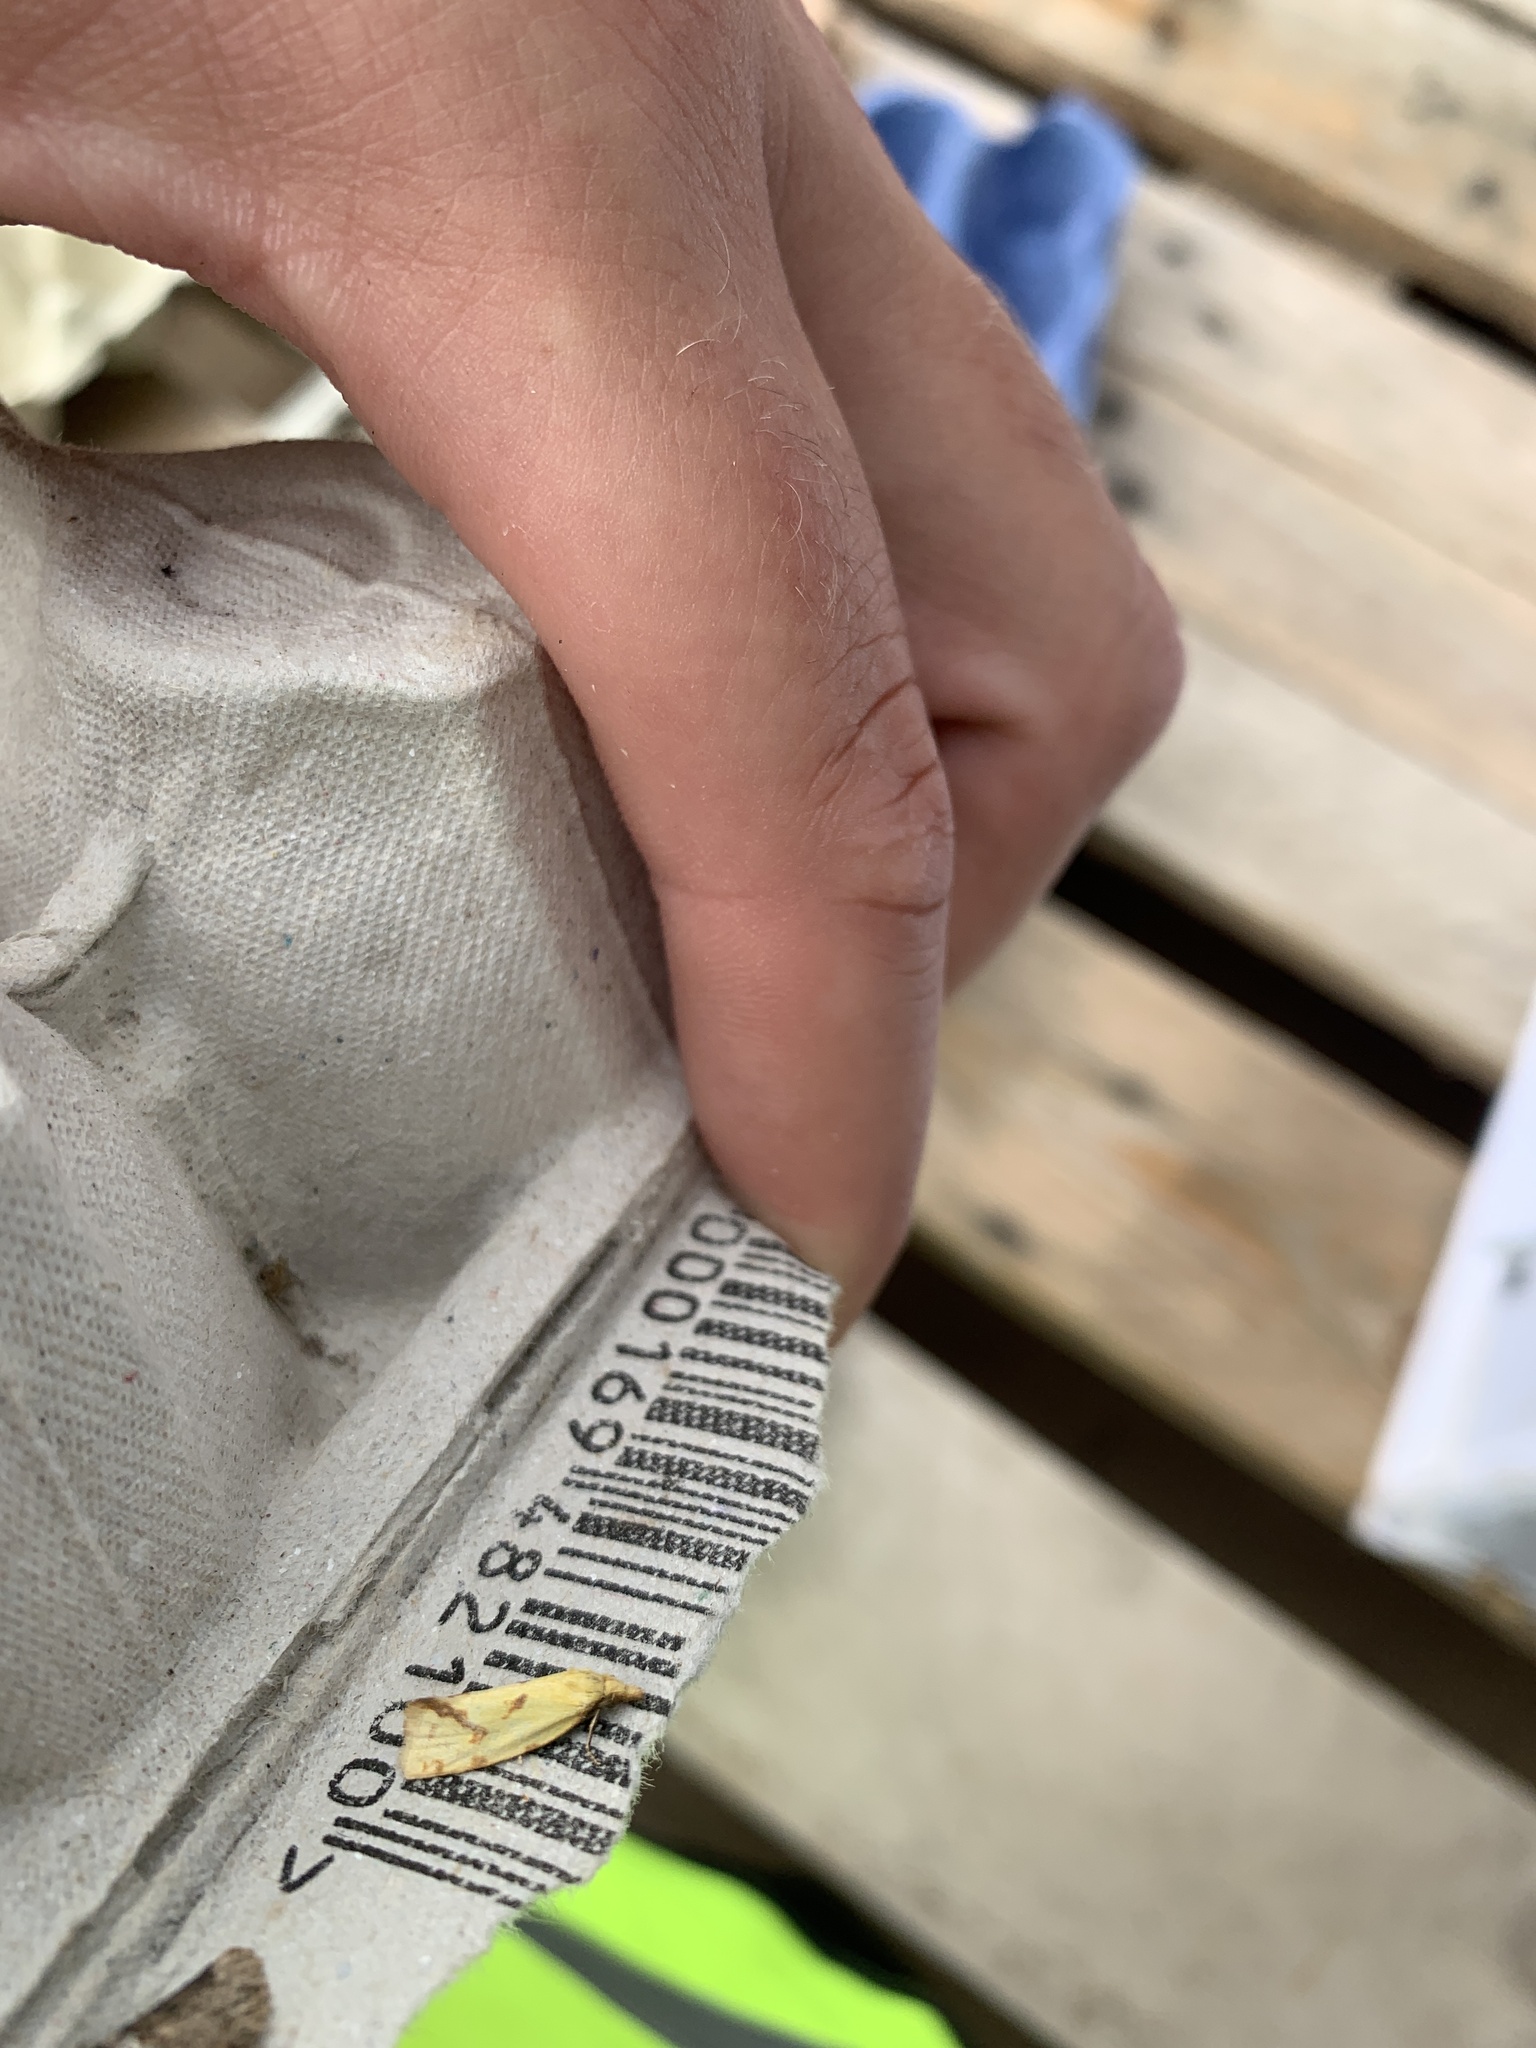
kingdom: Animalia
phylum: Arthropoda
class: Insecta
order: Lepidoptera
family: Tortricidae
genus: Agapeta
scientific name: Agapeta hamana
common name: Common yellow conch
